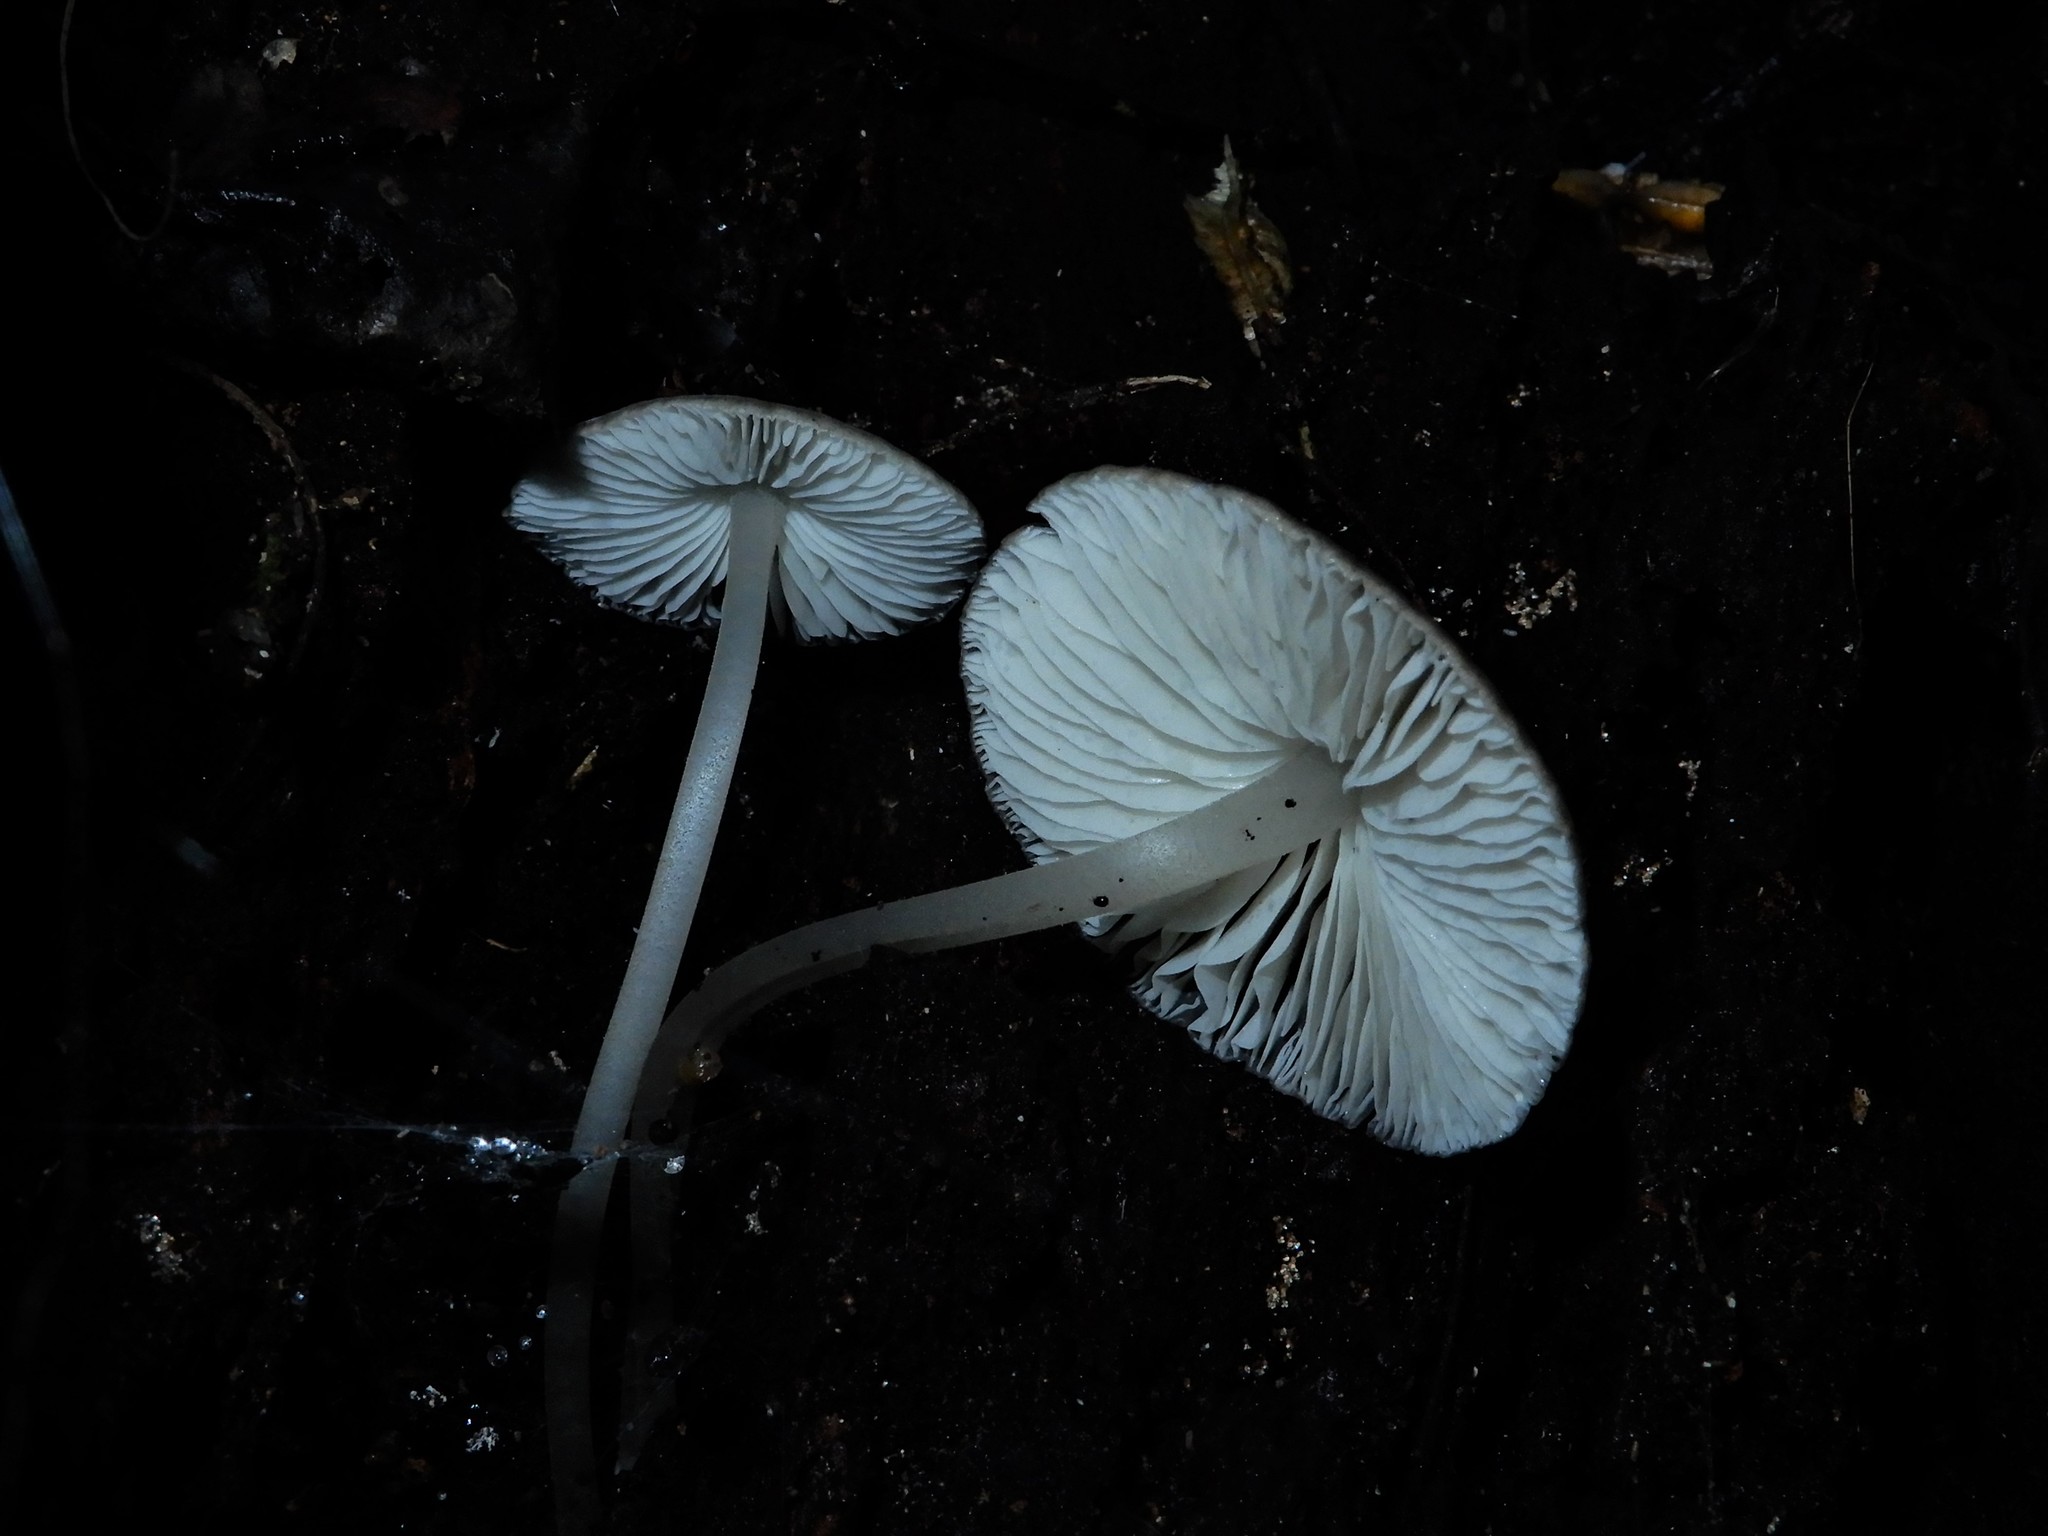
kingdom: Fungi
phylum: Basidiomycota
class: Agaricomycetes
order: Agaricales
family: Porotheleaceae
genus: Pseudohydropus
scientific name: Pseudohydropus commenticius
